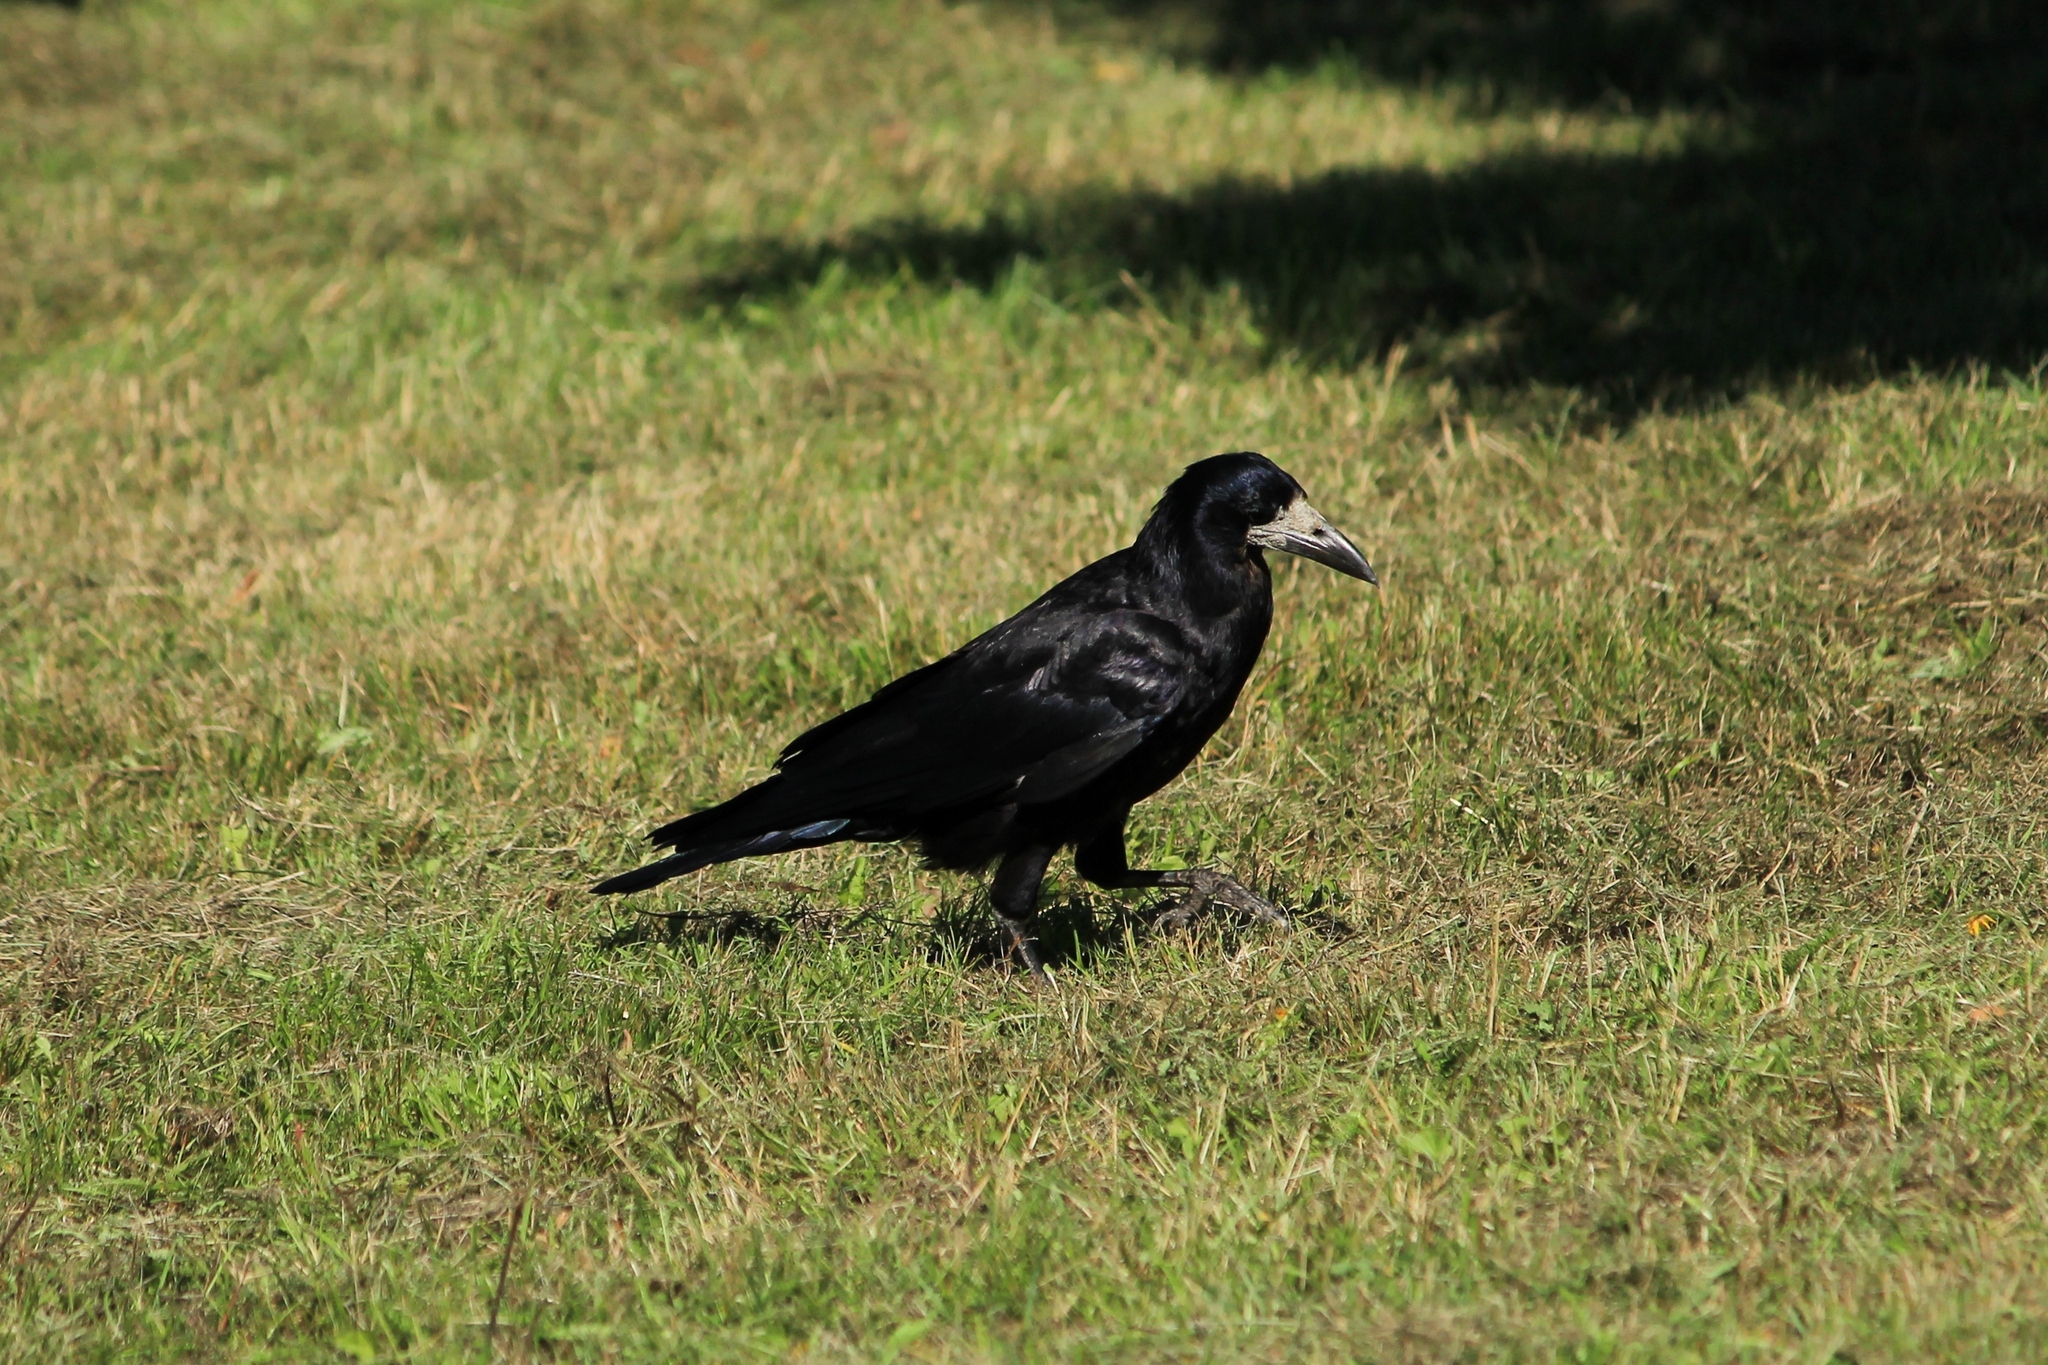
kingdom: Animalia
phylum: Chordata
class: Aves
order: Passeriformes
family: Corvidae
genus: Corvus
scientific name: Corvus frugilegus
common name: Rook
